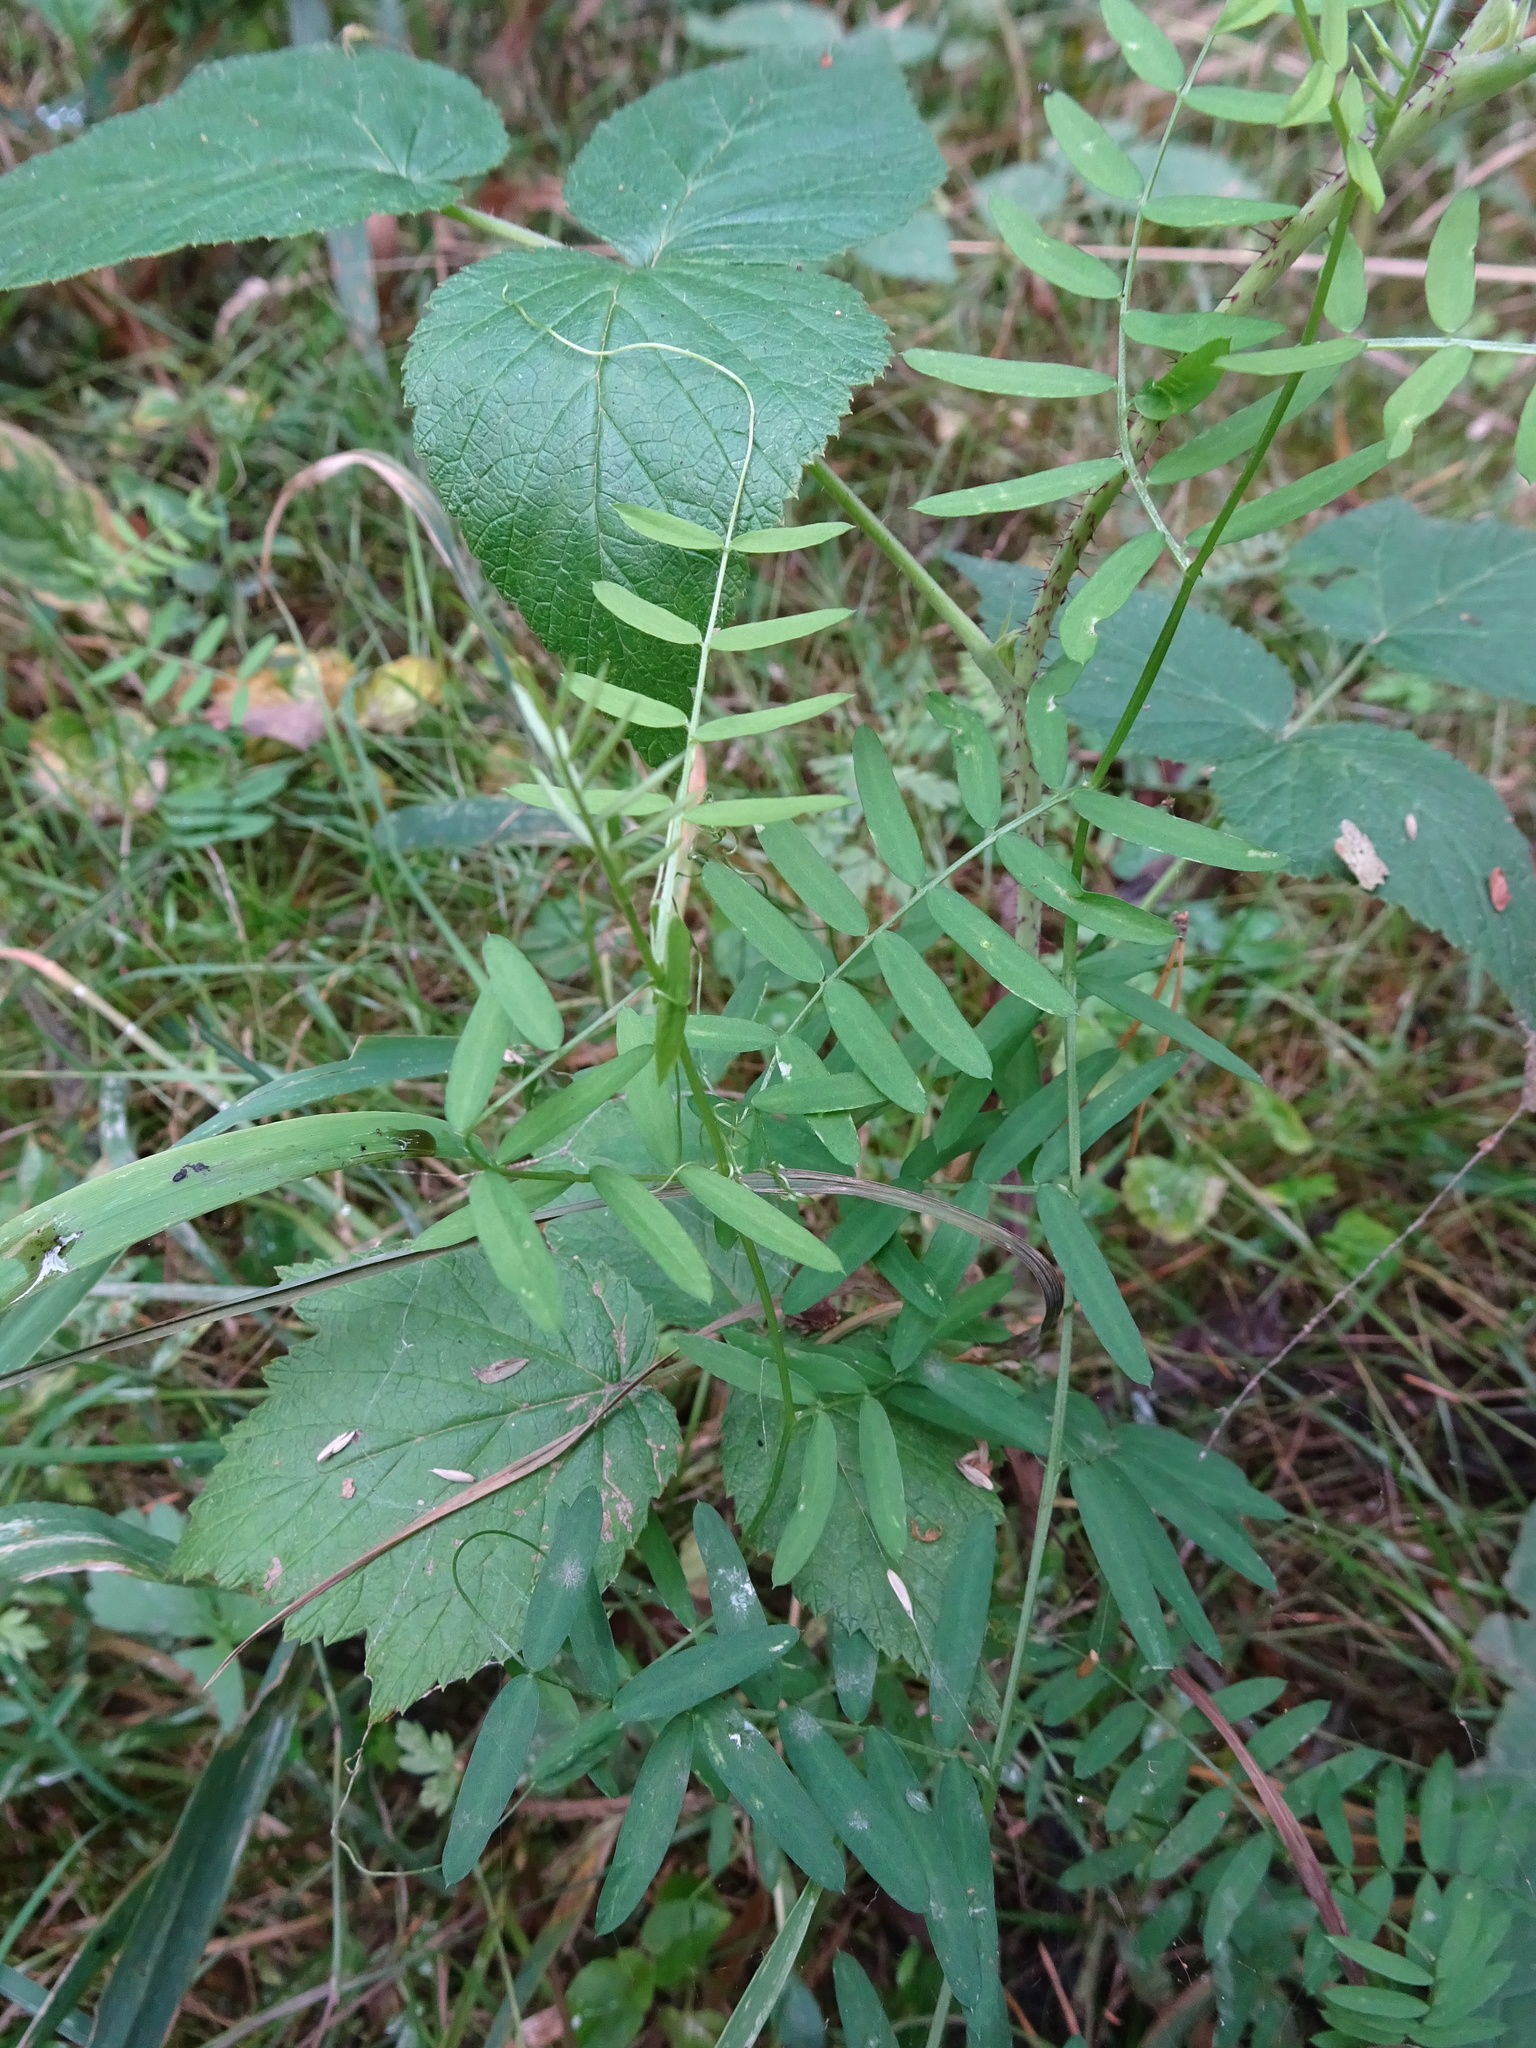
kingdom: Plantae
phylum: Tracheophyta
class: Magnoliopsida
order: Fabales
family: Fabaceae
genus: Vicia
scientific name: Vicia cracca
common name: Bird vetch
